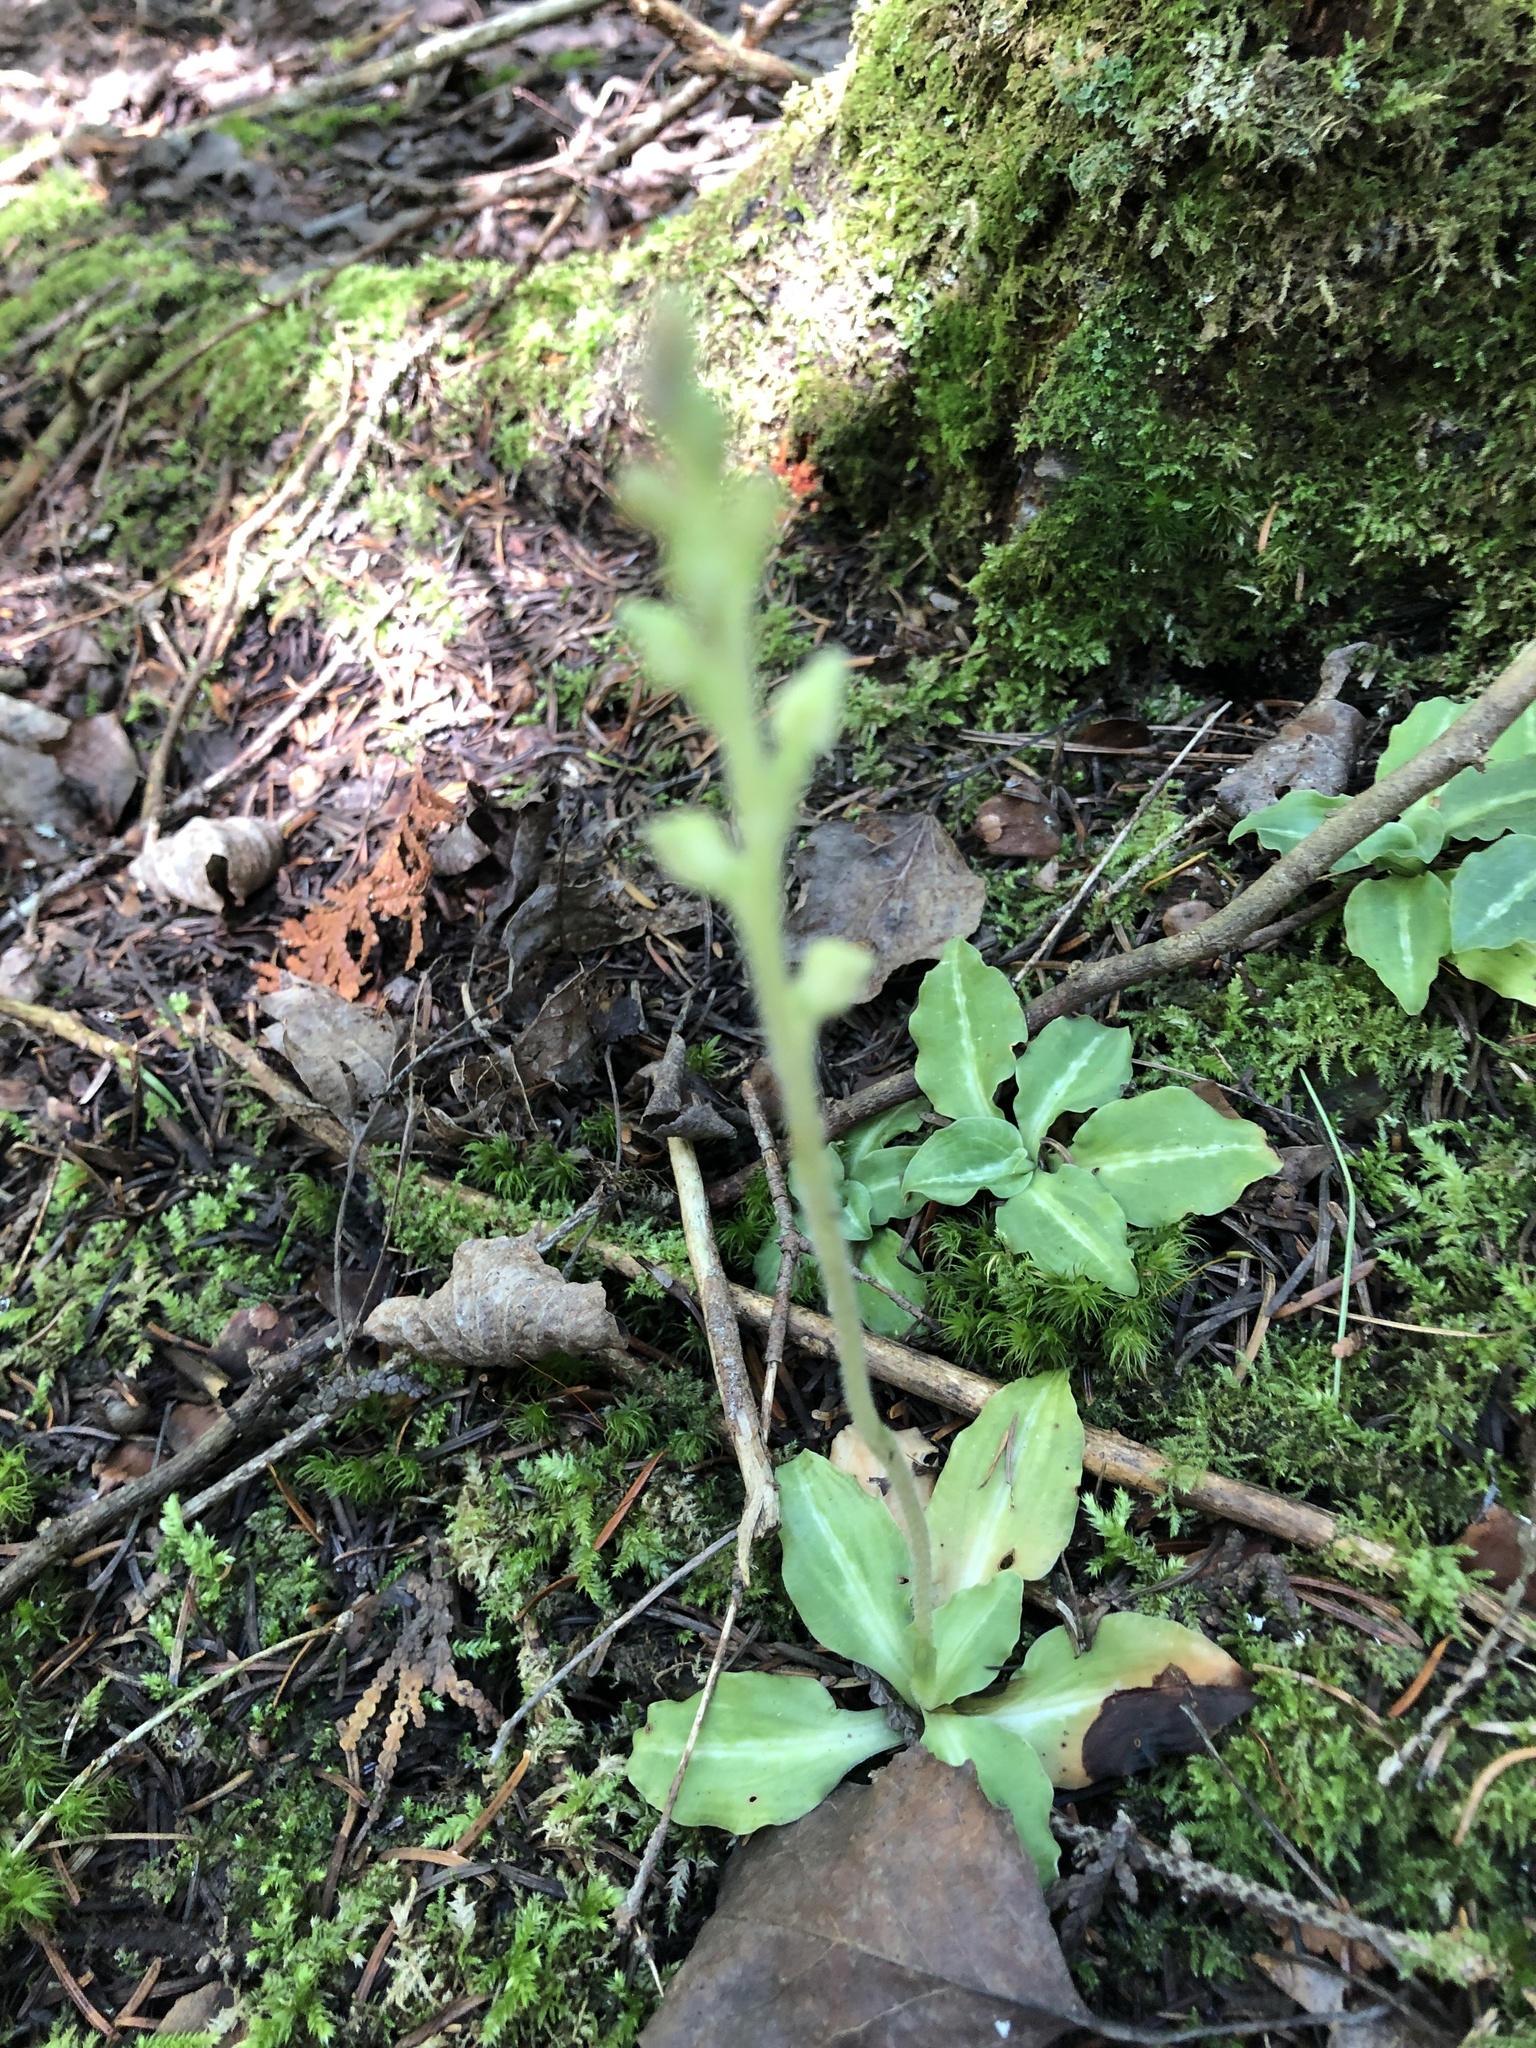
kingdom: Plantae
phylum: Tracheophyta
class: Liliopsida
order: Asparagales
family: Orchidaceae
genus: Goodyera
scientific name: Goodyera oblongifolia
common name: Giant rattlesnake-plantain
